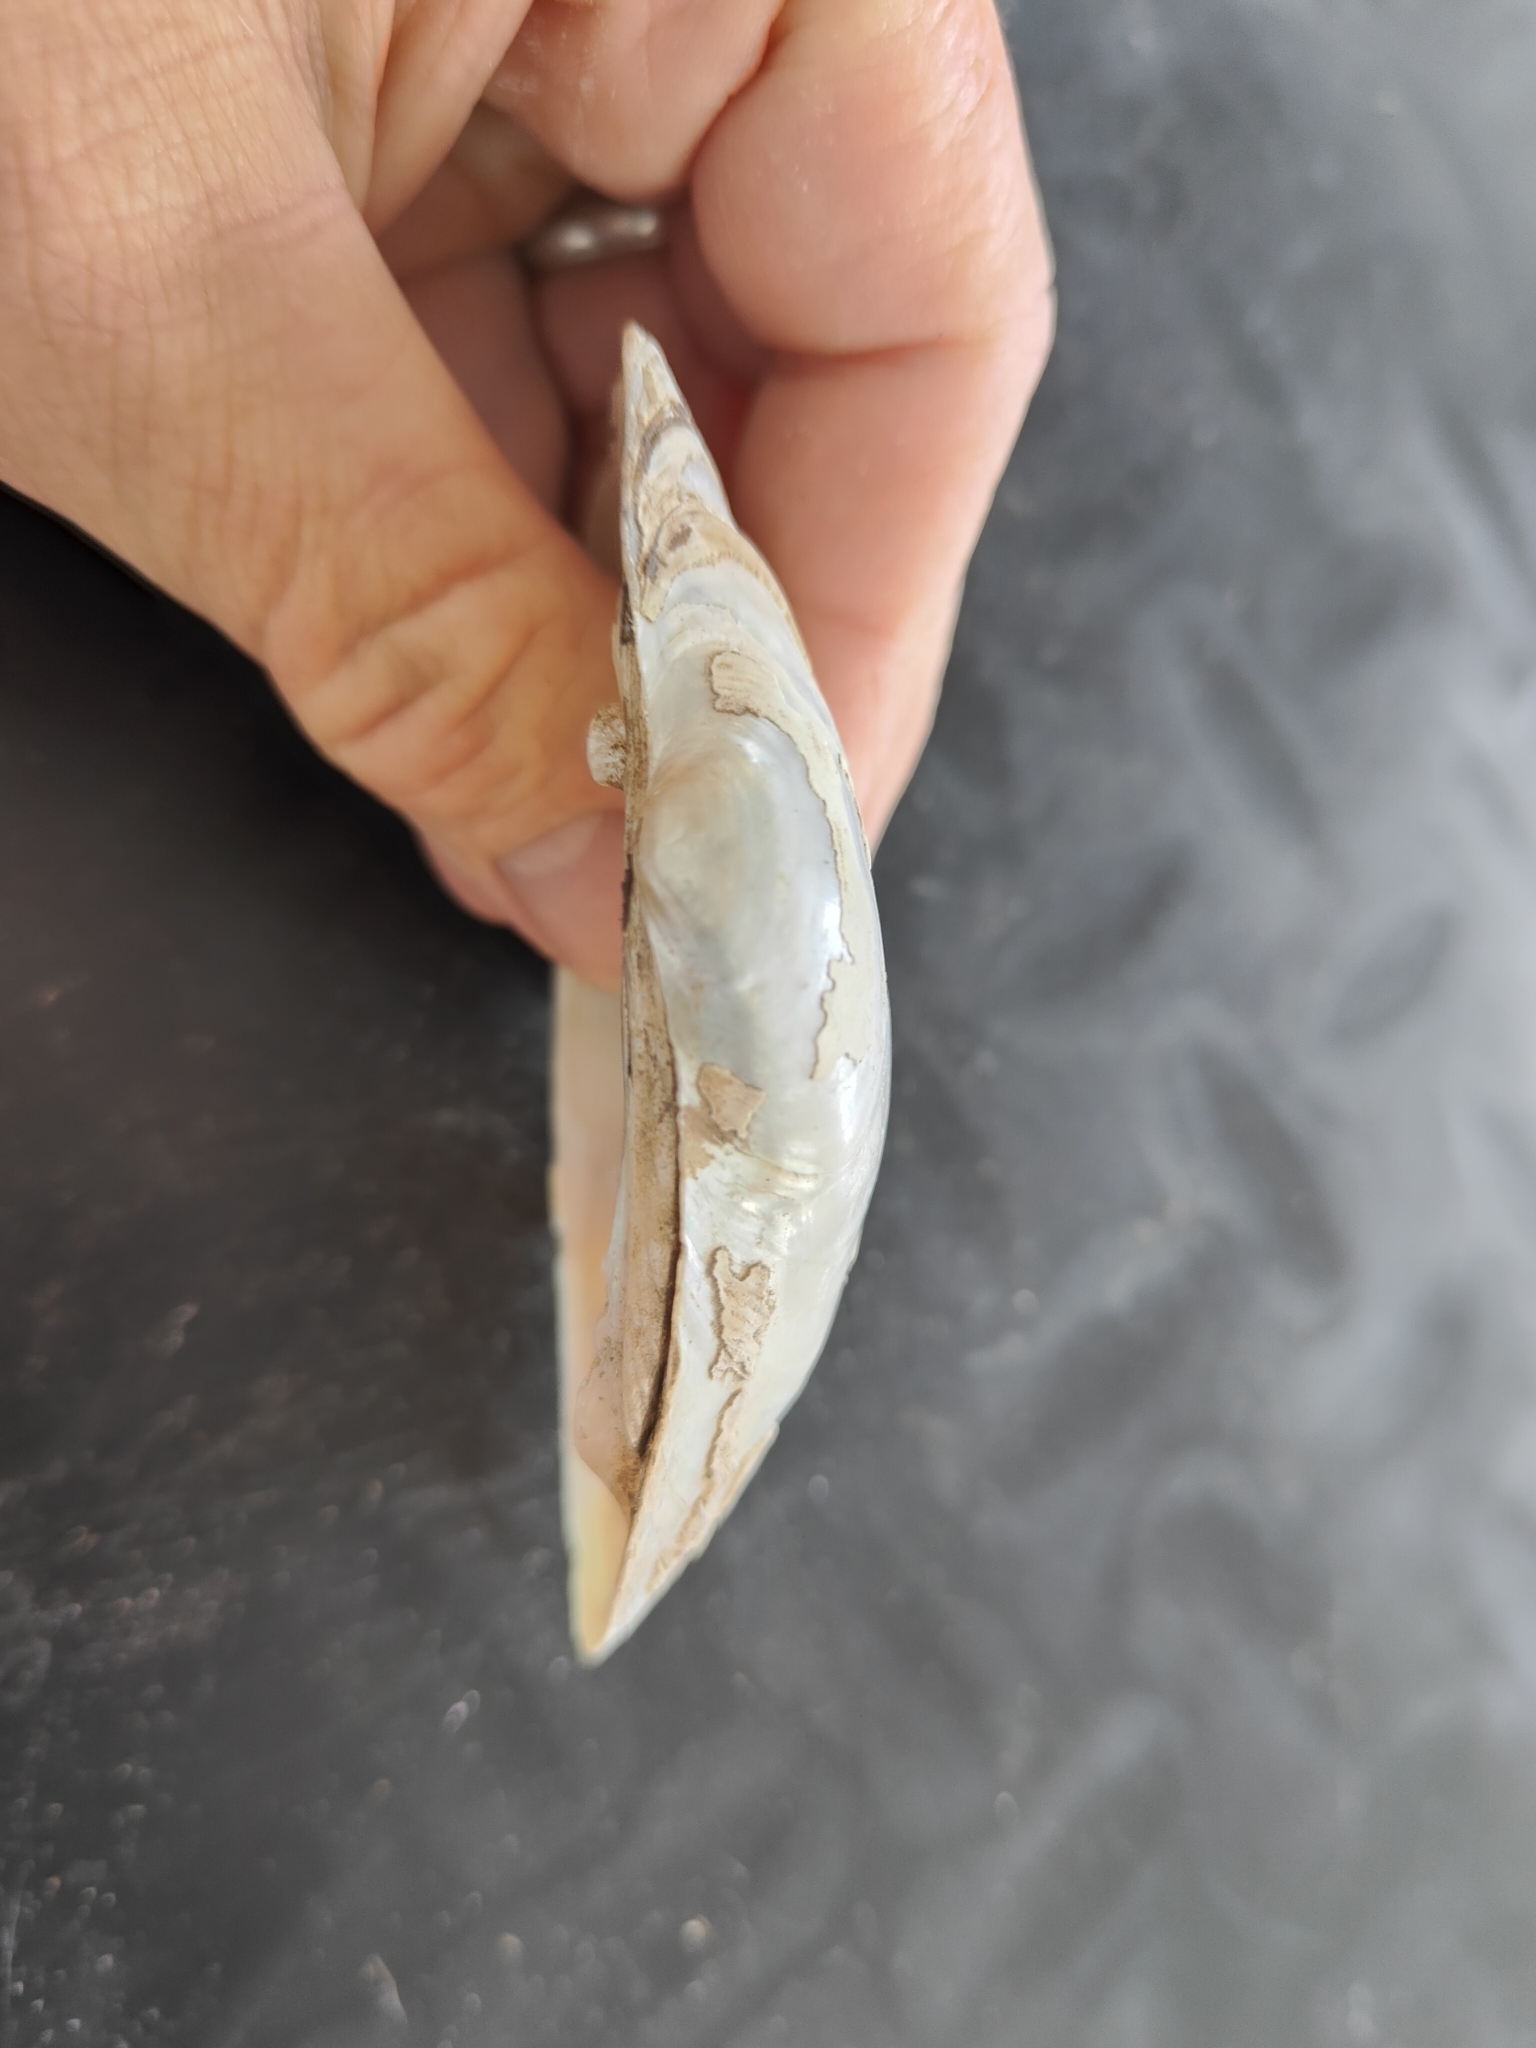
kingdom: Animalia
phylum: Mollusca
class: Bivalvia
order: Unionida
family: Unionidae
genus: Lampsilis
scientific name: Lampsilis cardium
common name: Plain pocketbook
